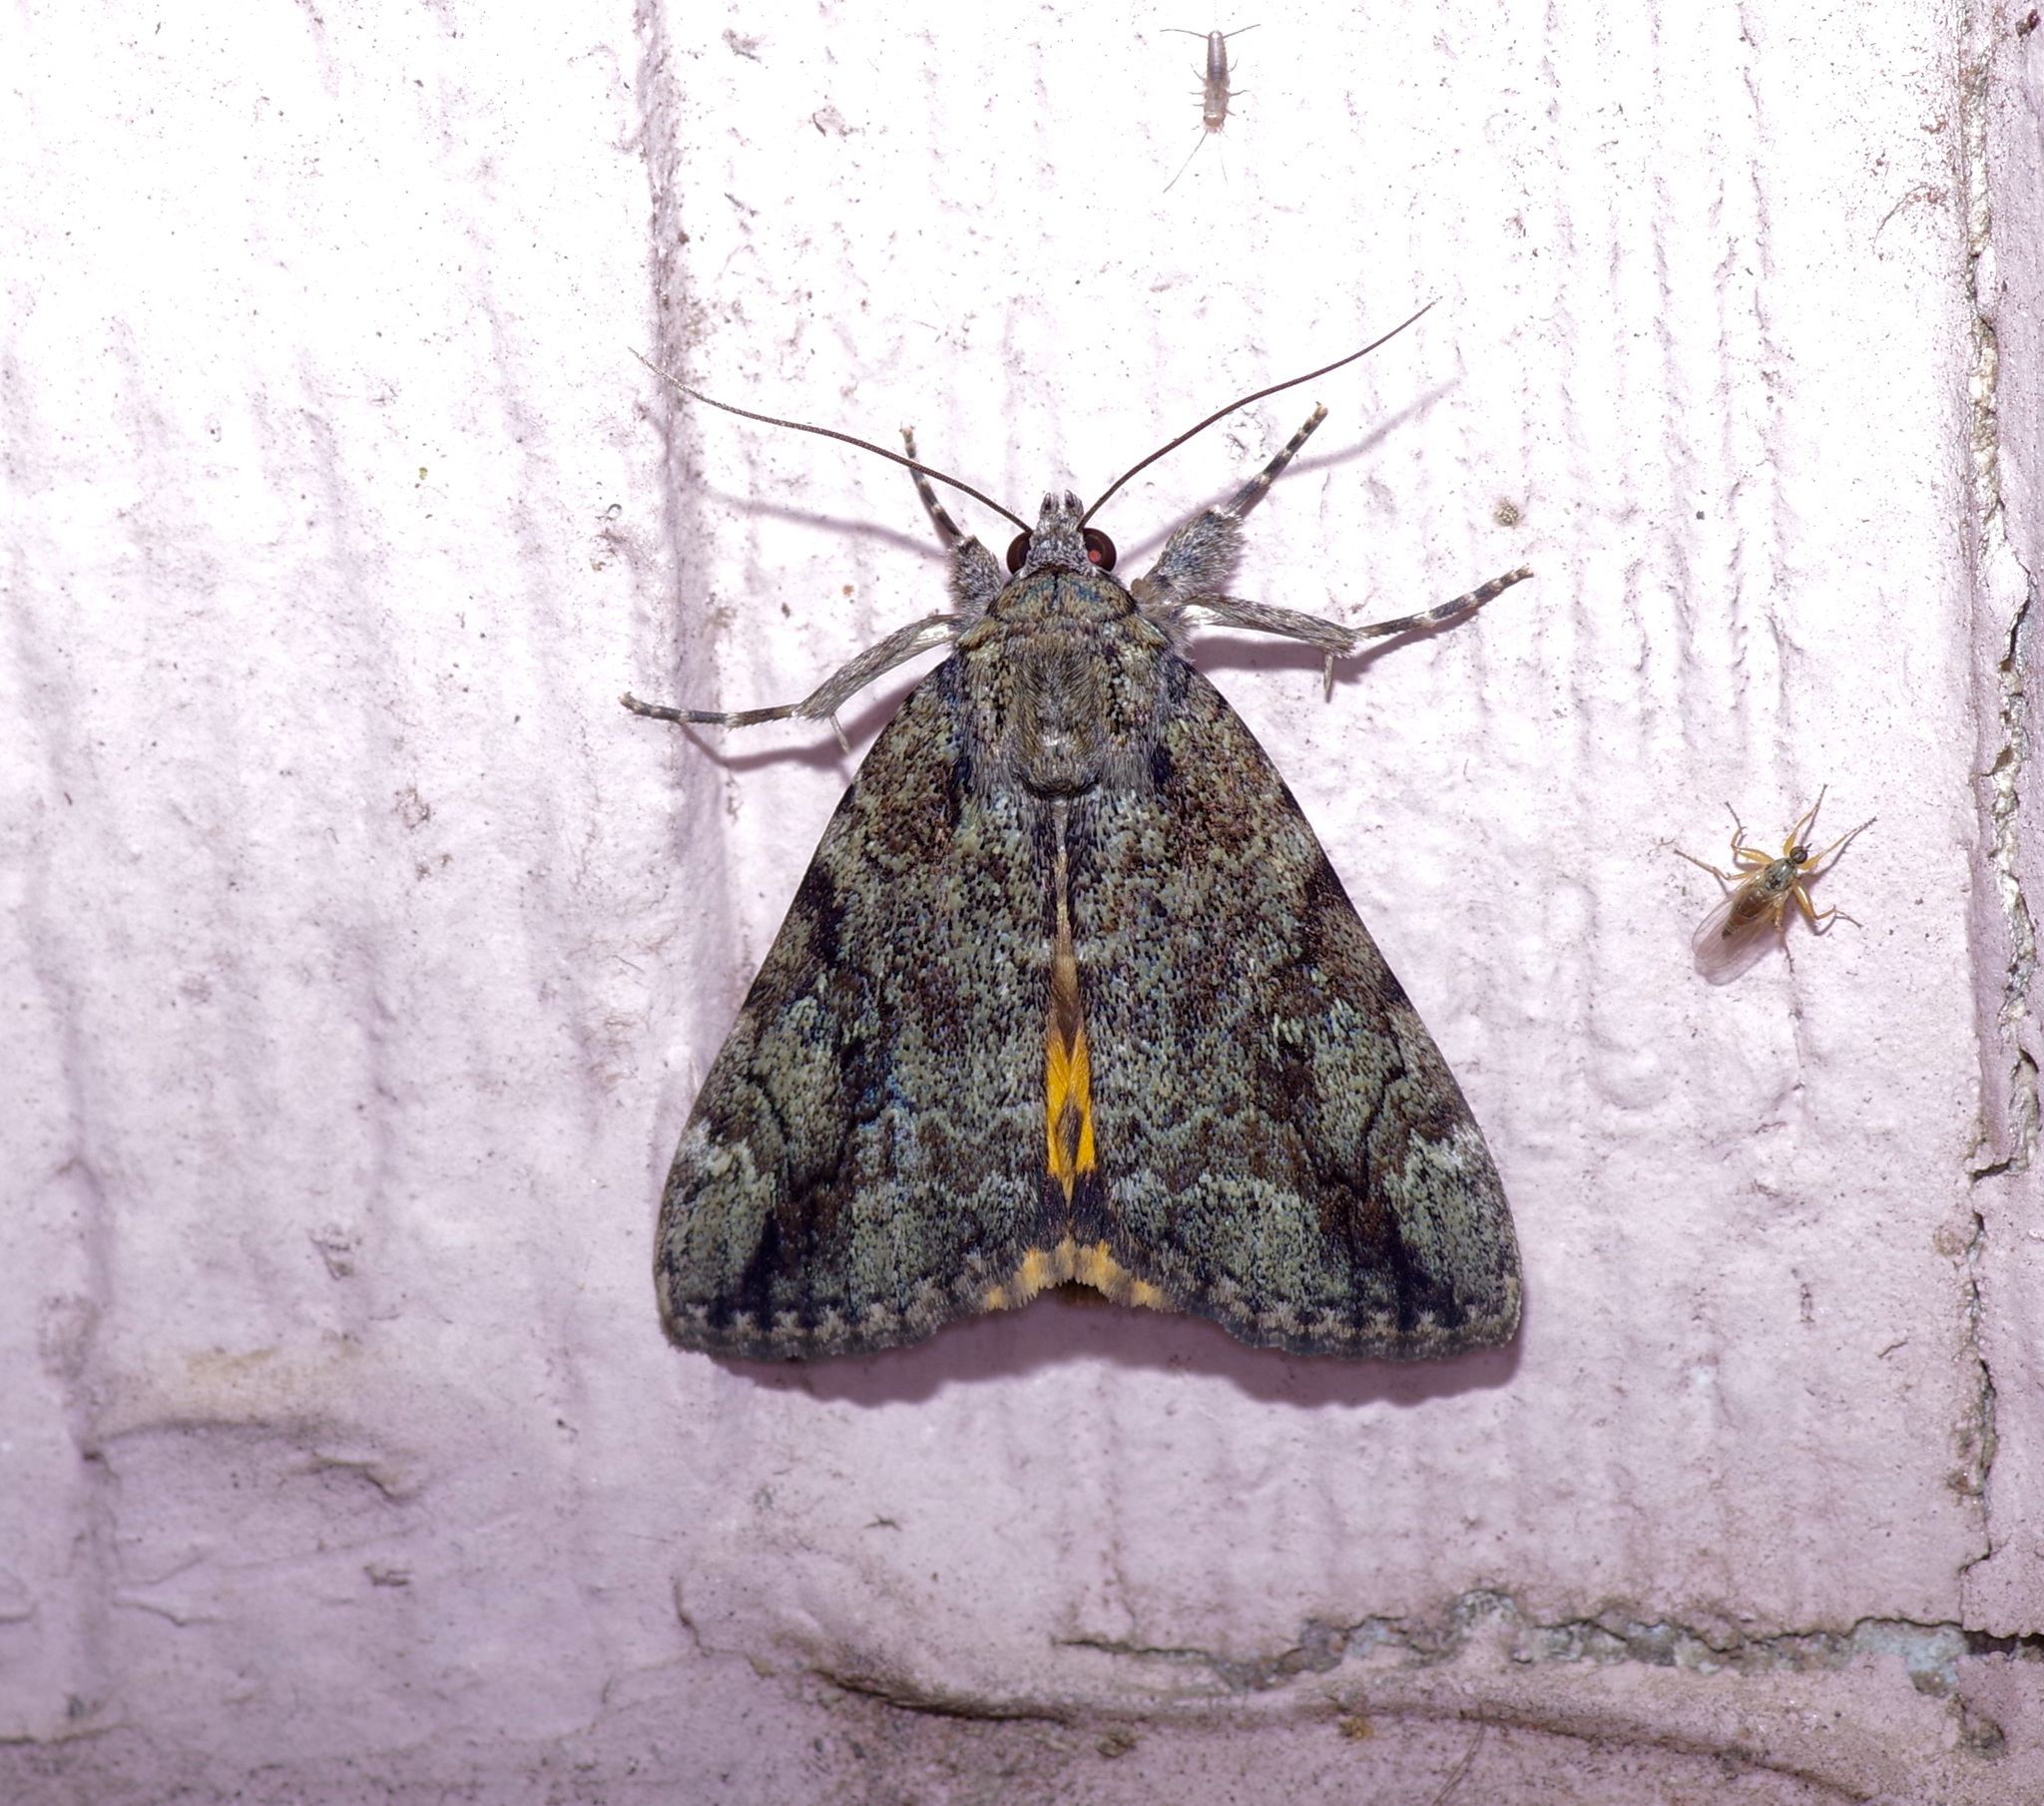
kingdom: Animalia
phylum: Arthropoda
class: Insecta
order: Lepidoptera
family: Erebidae
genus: Catocala
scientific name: Catocala micronympha
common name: Little nymph underwing
